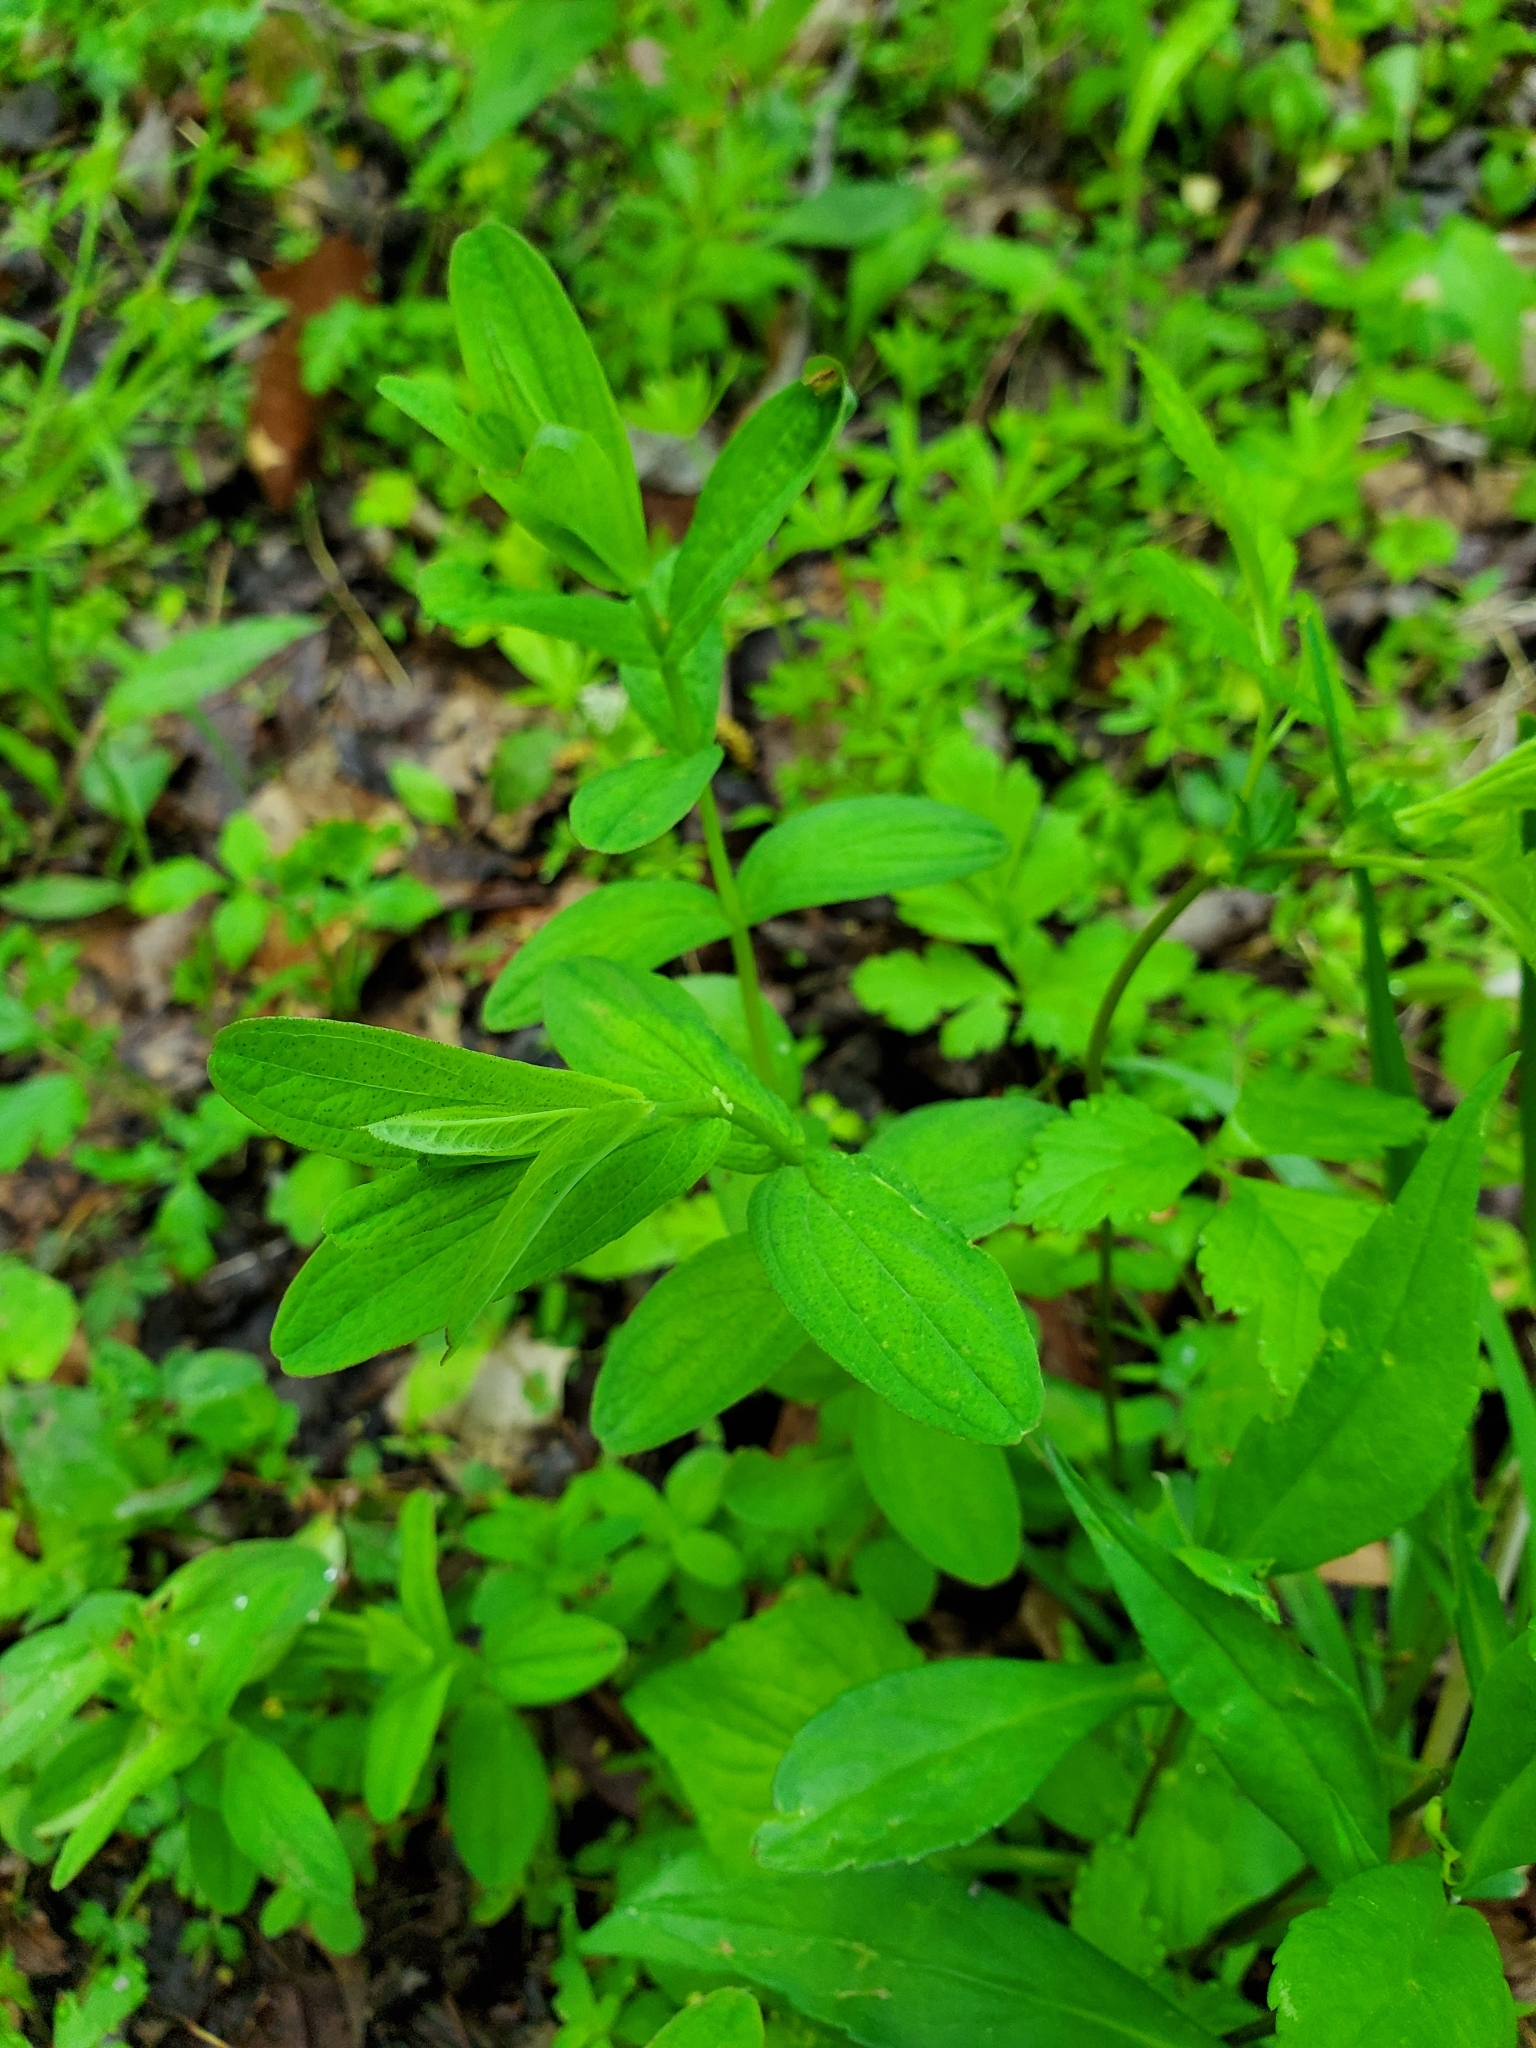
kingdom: Plantae
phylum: Tracheophyta
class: Magnoliopsida
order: Malpighiales
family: Hypericaceae
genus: Hypericum
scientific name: Hypericum punctatum
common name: Spotted st. john's-wort
